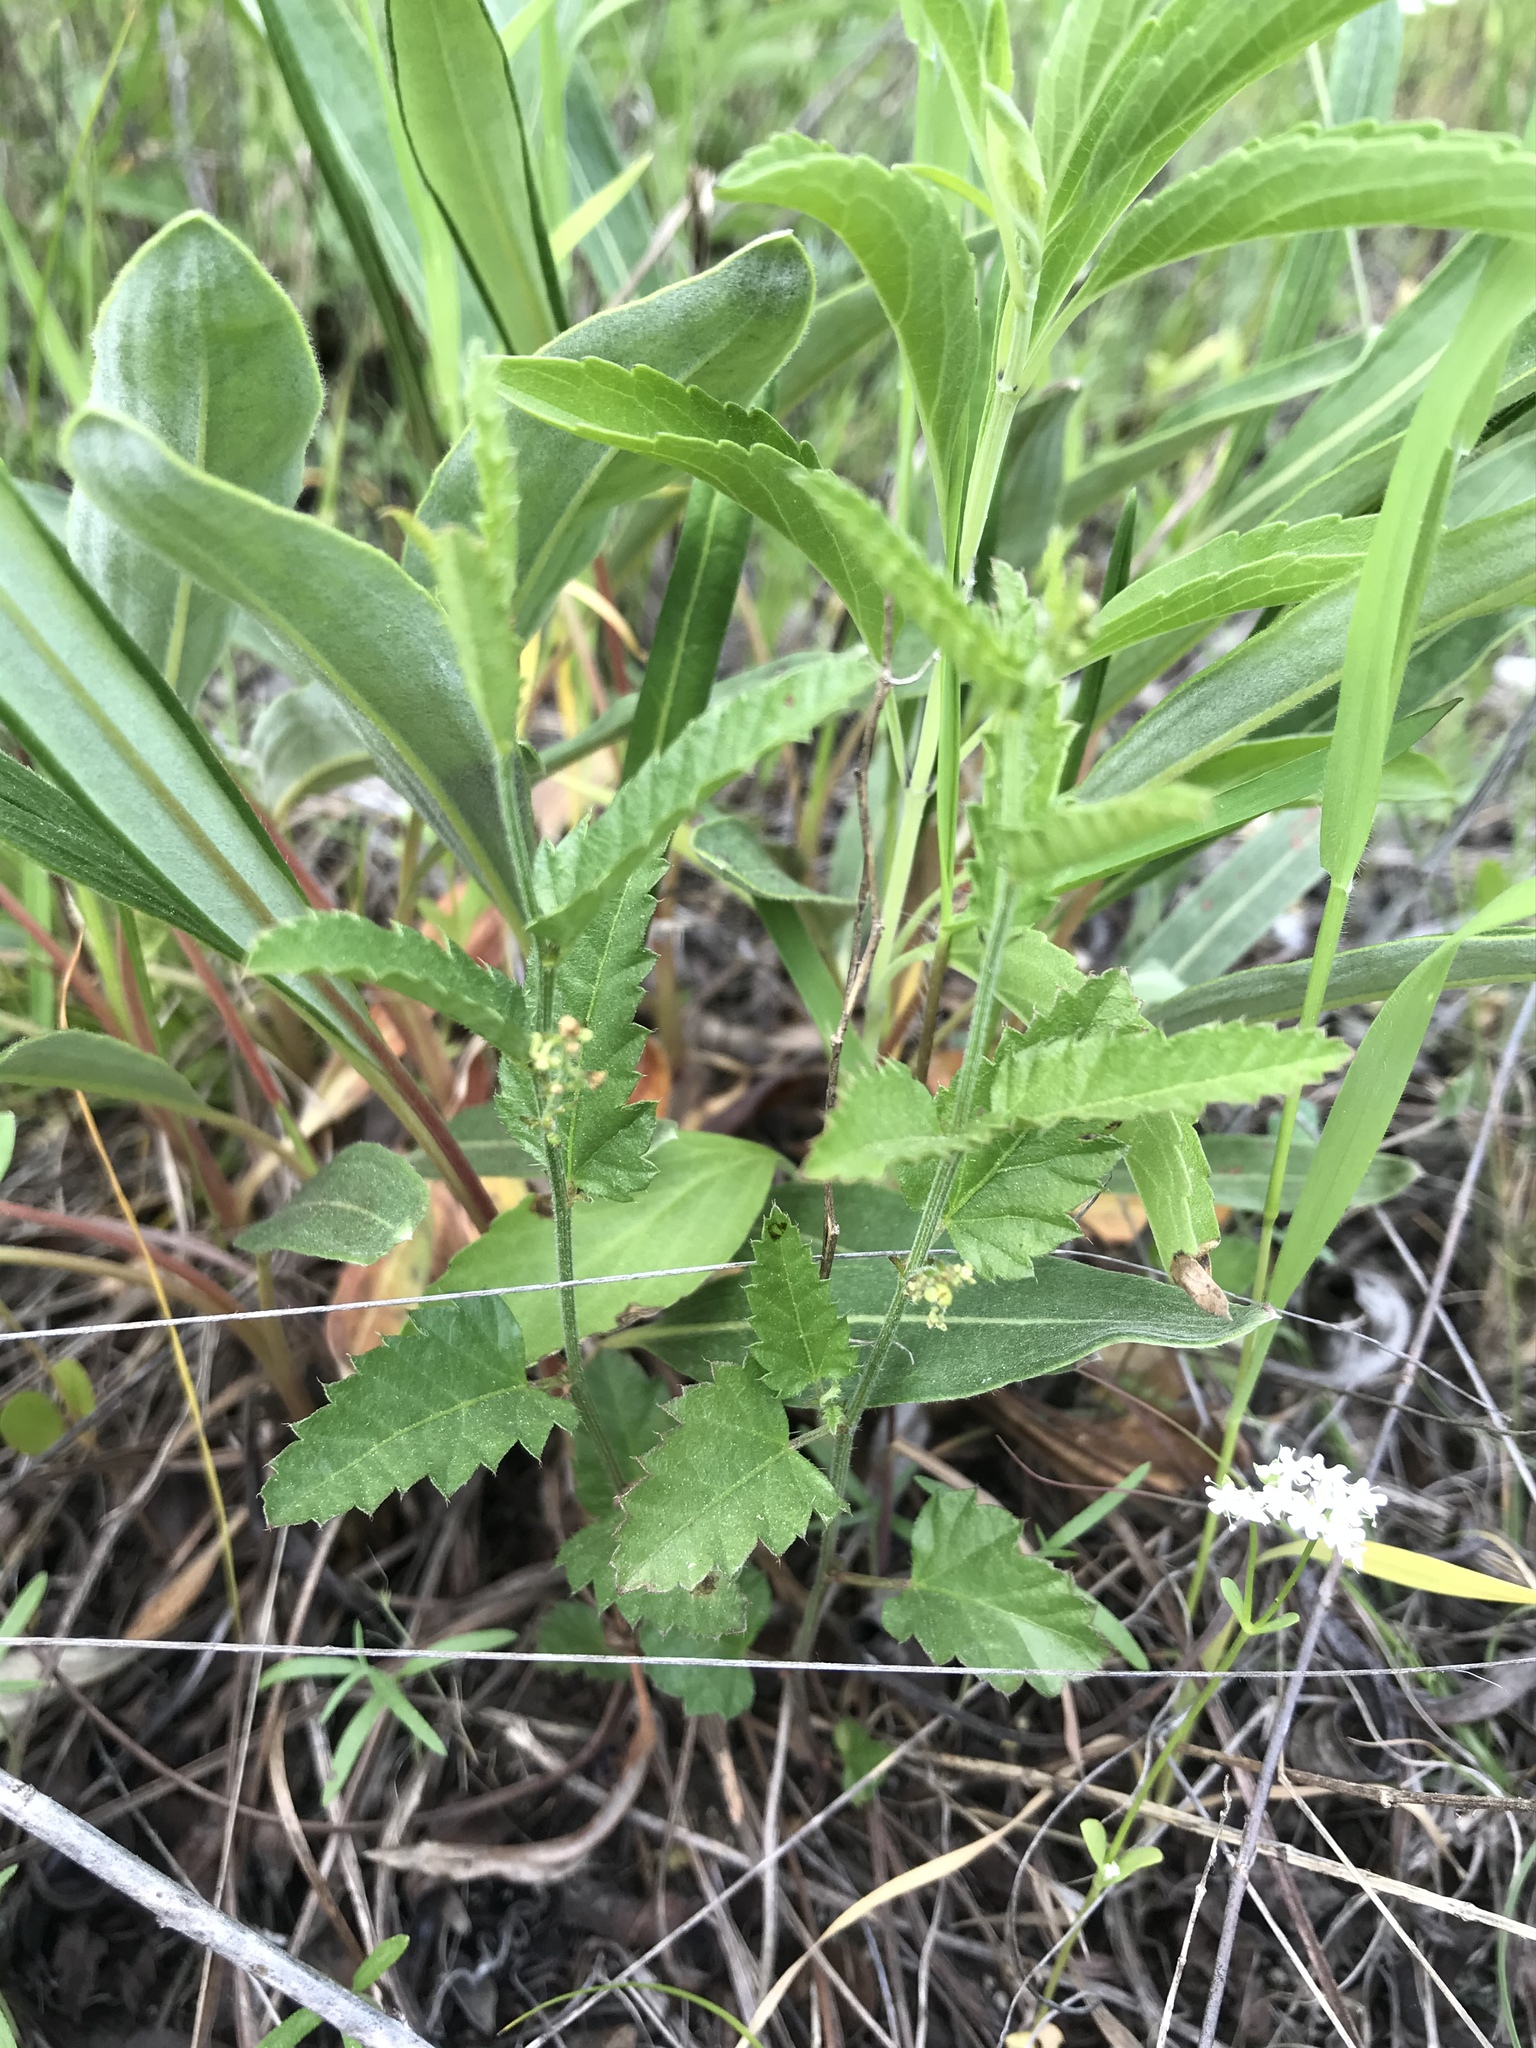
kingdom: Plantae
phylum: Tracheophyta
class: Magnoliopsida
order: Malpighiales
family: Euphorbiaceae
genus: Tragia
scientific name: Tragia urticifolia
